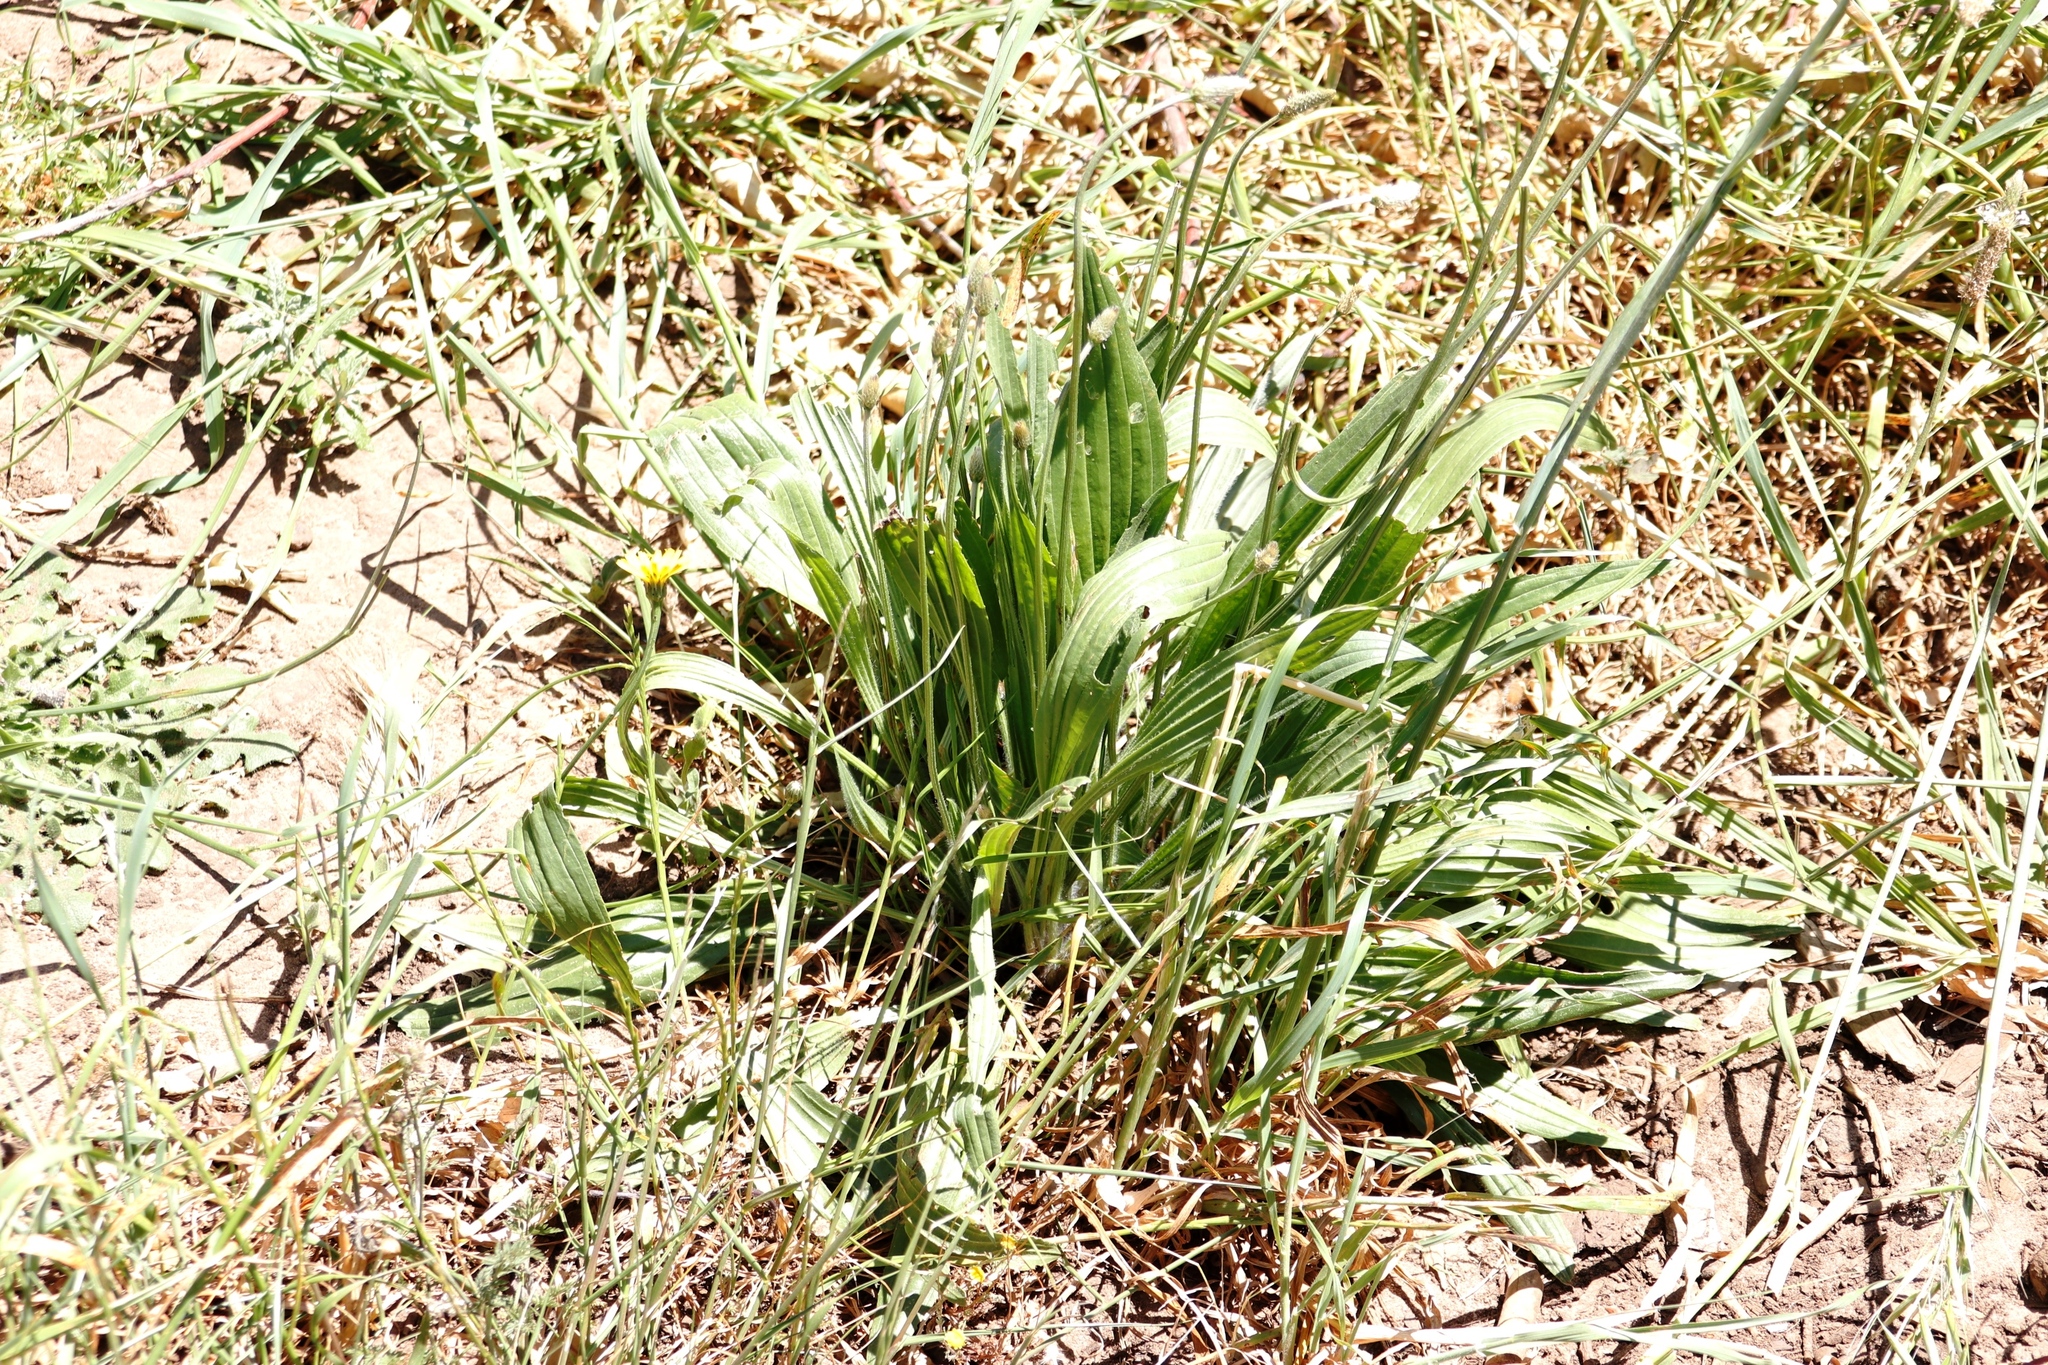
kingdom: Plantae
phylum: Tracheophyta
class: Magnoliopsida
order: Lamiales
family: Plantaginaceae
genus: Plantago
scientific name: Plantago lanceolata
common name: Ribwort plantain
